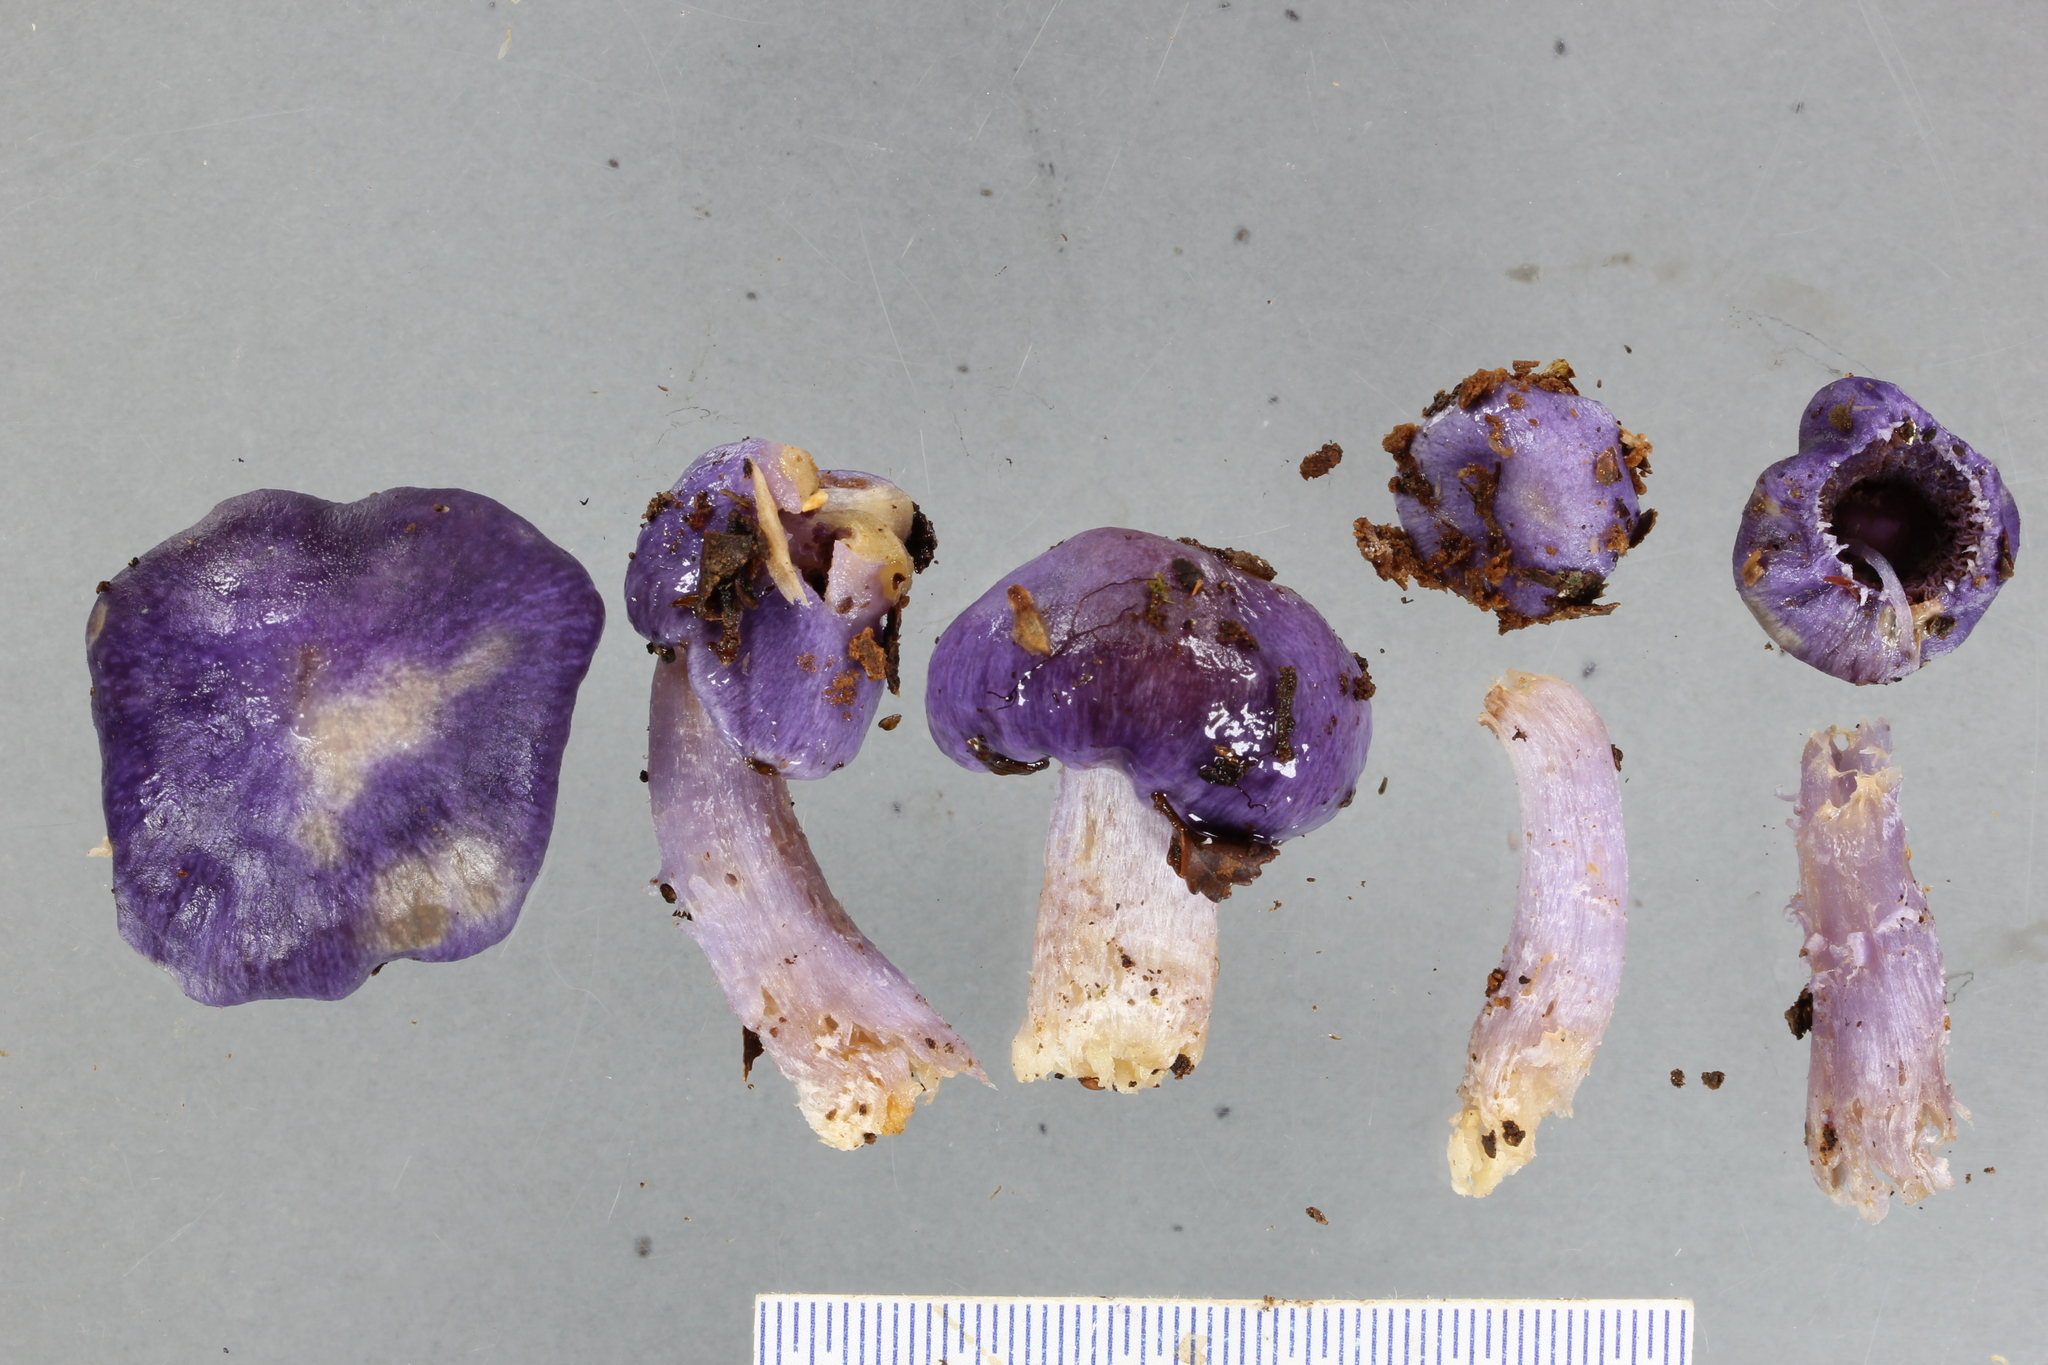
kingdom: Fungi
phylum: Basidiomycota
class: Agaricomycetes
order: Agaricales
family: Cortinariaceae
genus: Cortinarius
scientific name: Cortinarius violaceocystidiatus
